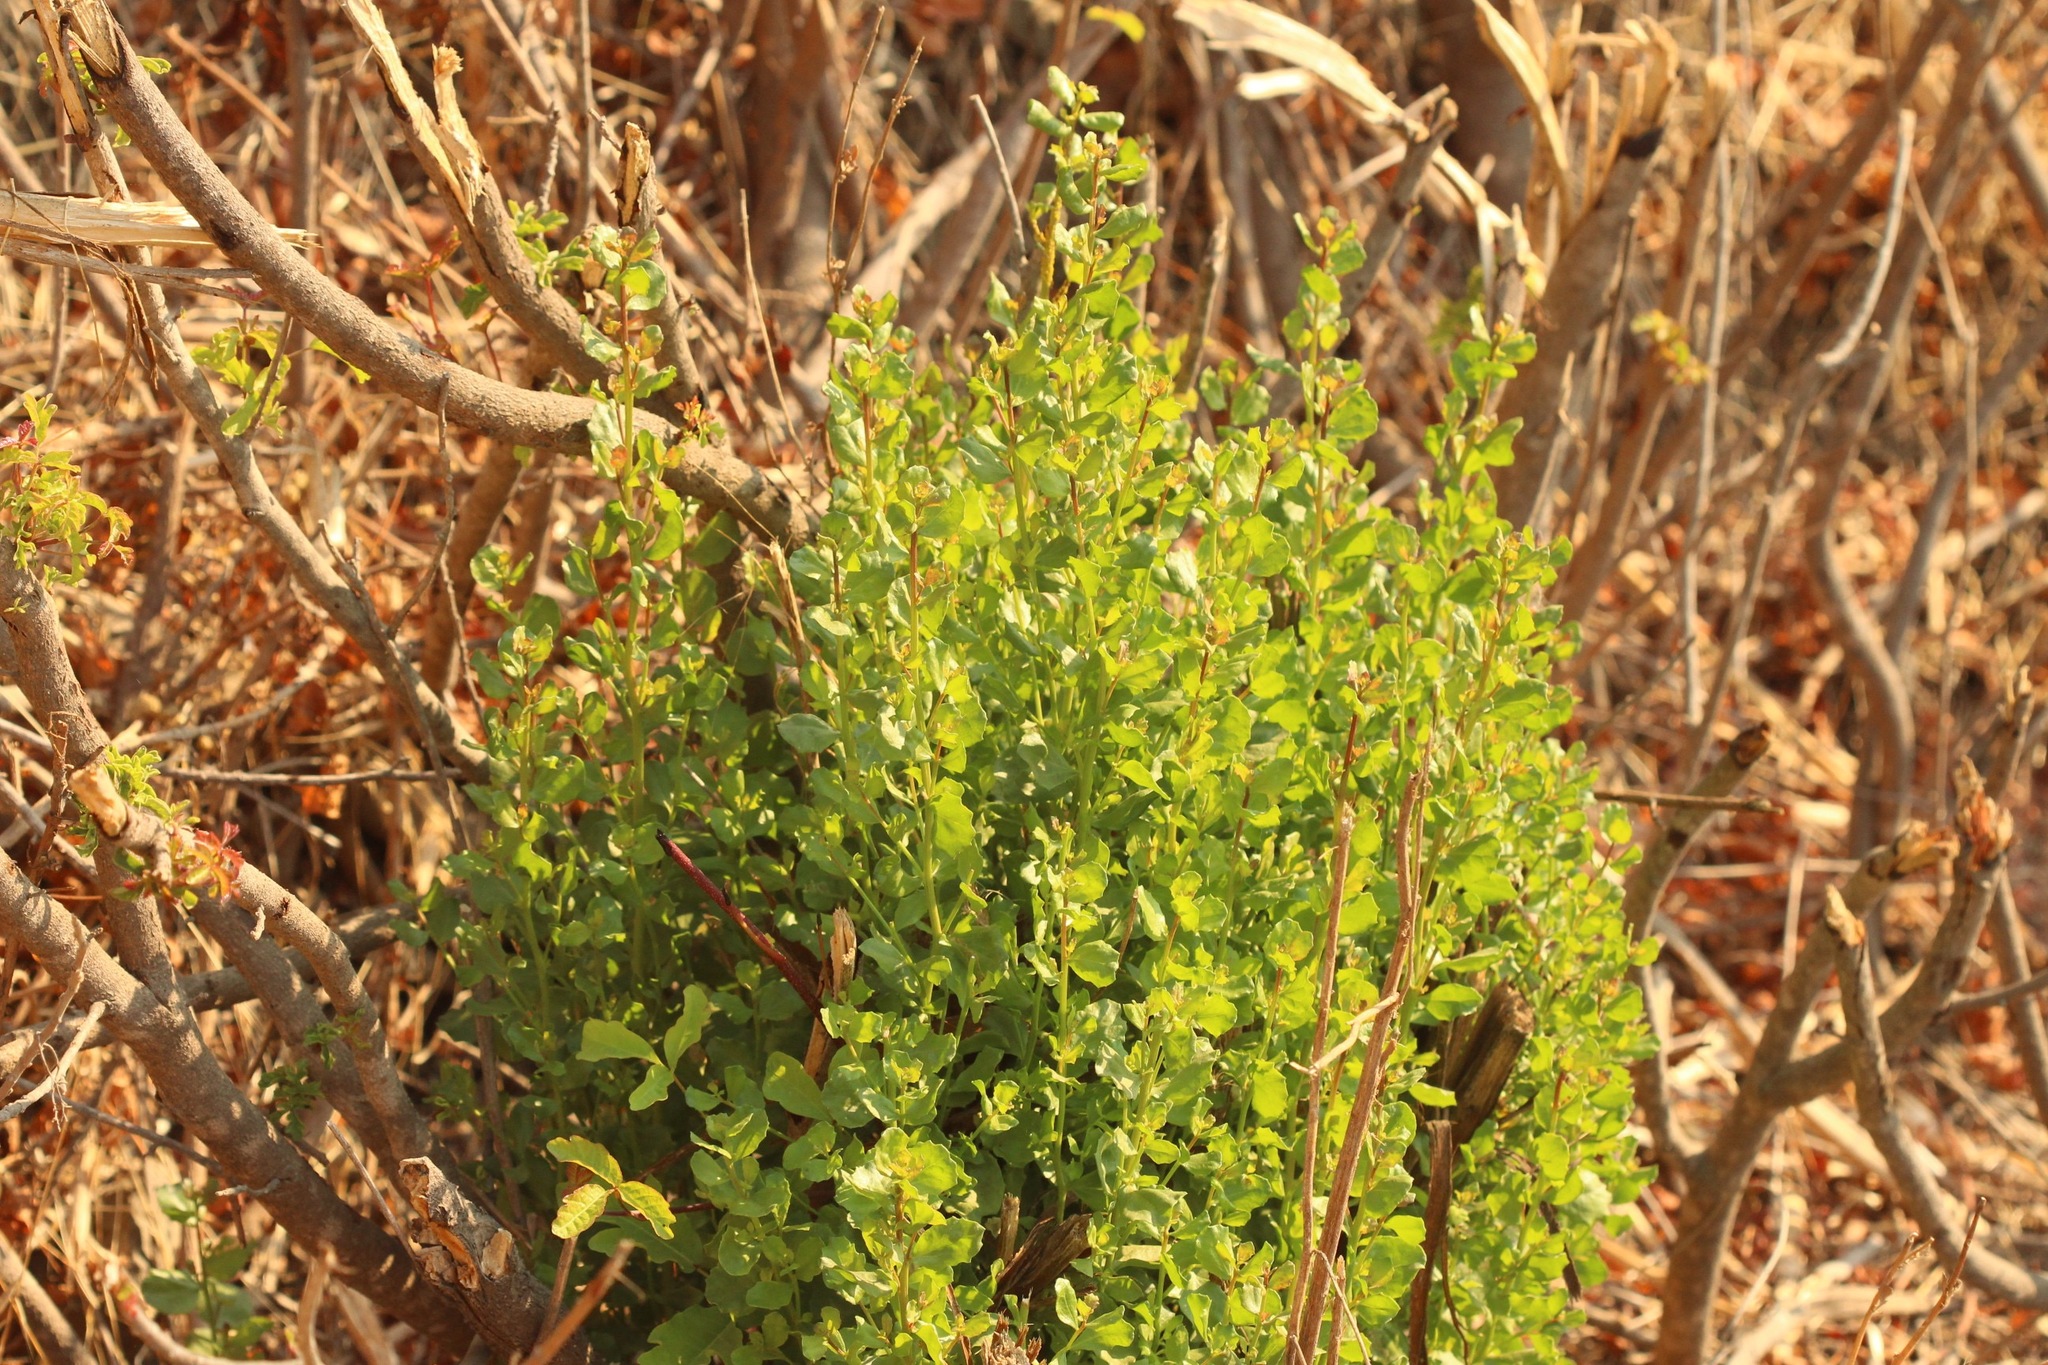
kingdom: Plantae
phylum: Tracheophyta
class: Magnoliopsida
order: Asterales
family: Asteraceae
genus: Baccharis
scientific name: Baccharis pilularis
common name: Coyotebrush
